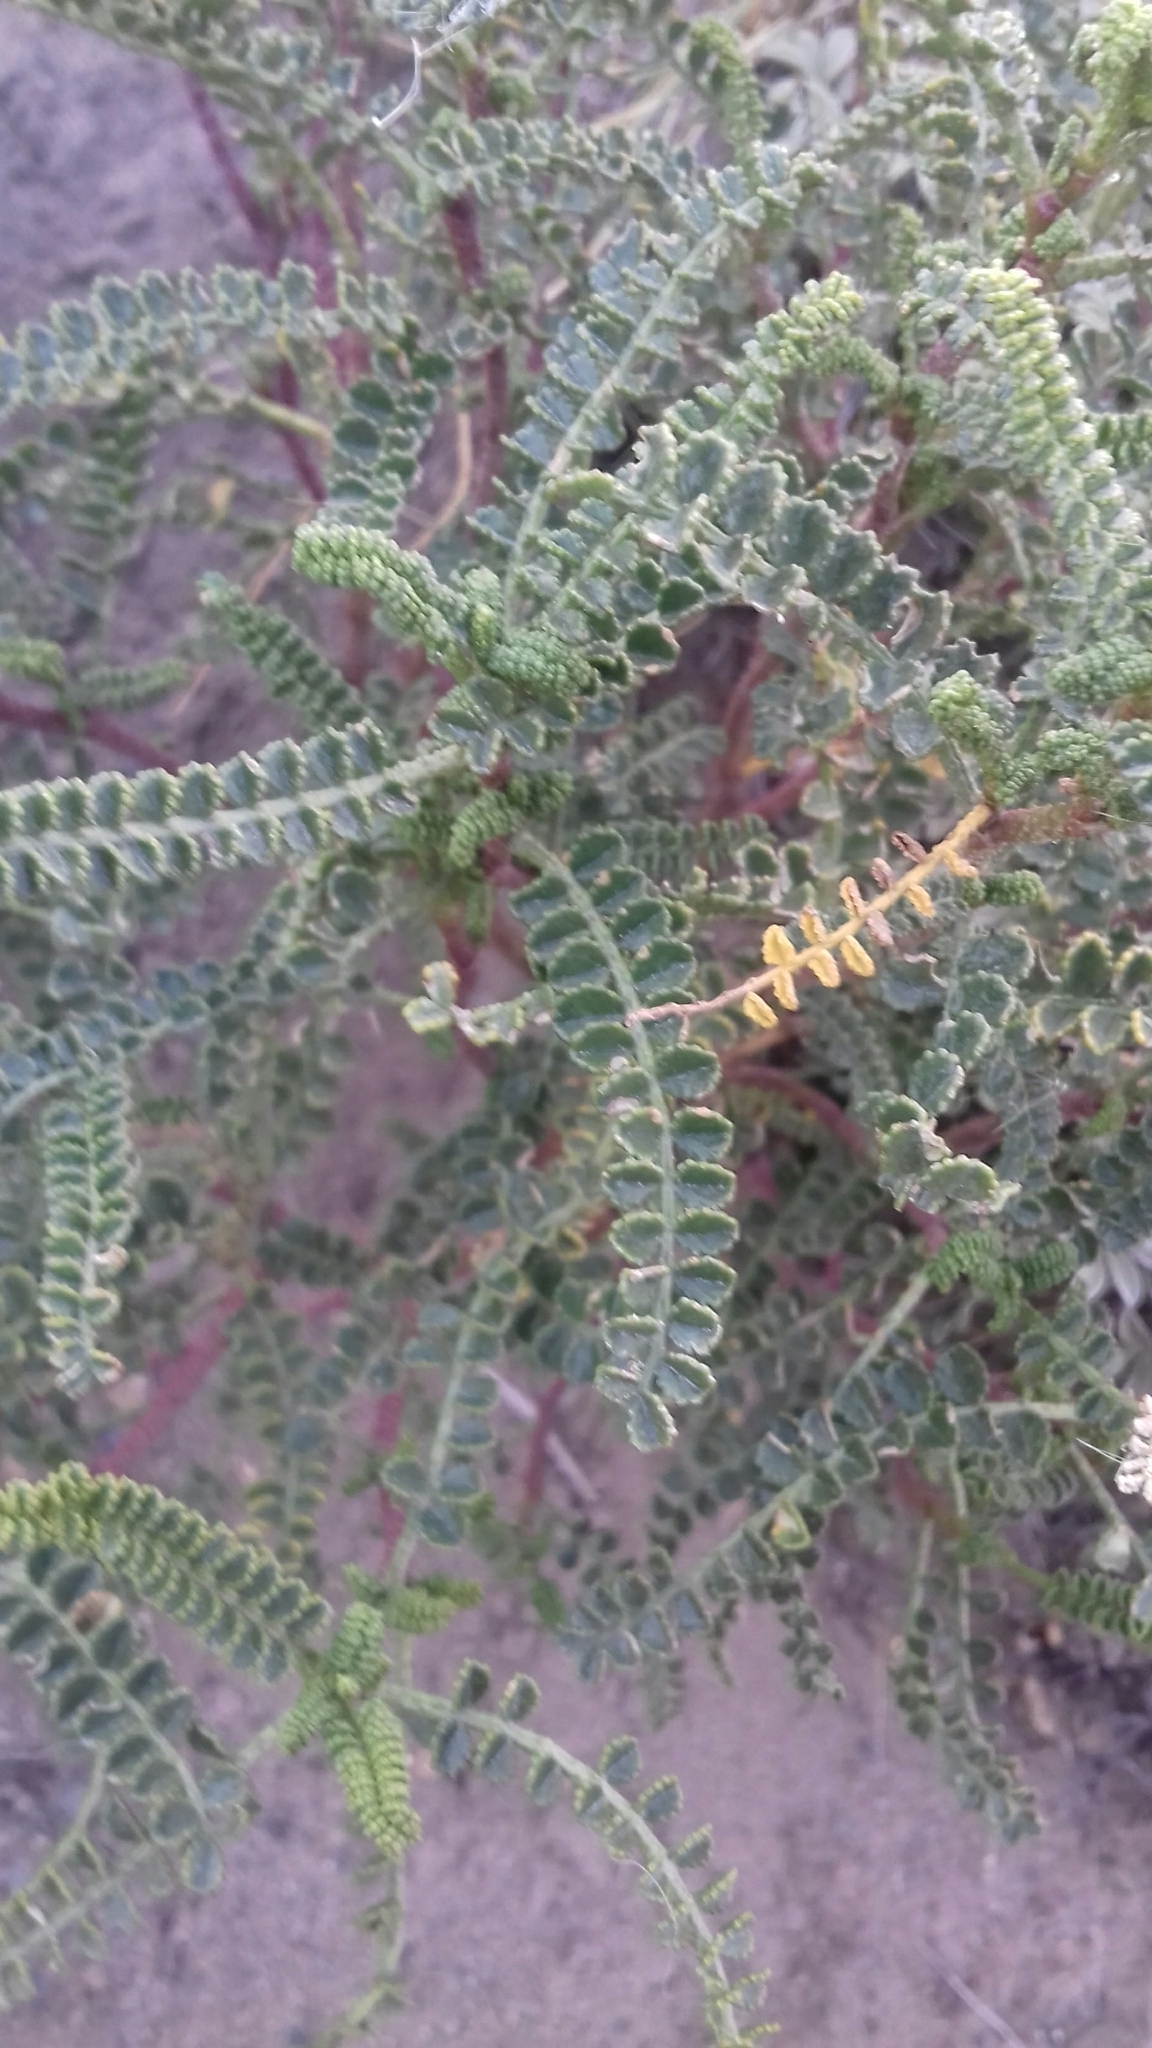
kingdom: Plantae
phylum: Tracheophyta
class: Magnoliopsida
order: Fabales
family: Fabaceae
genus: Adesmia
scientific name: Adesmia boronioides
